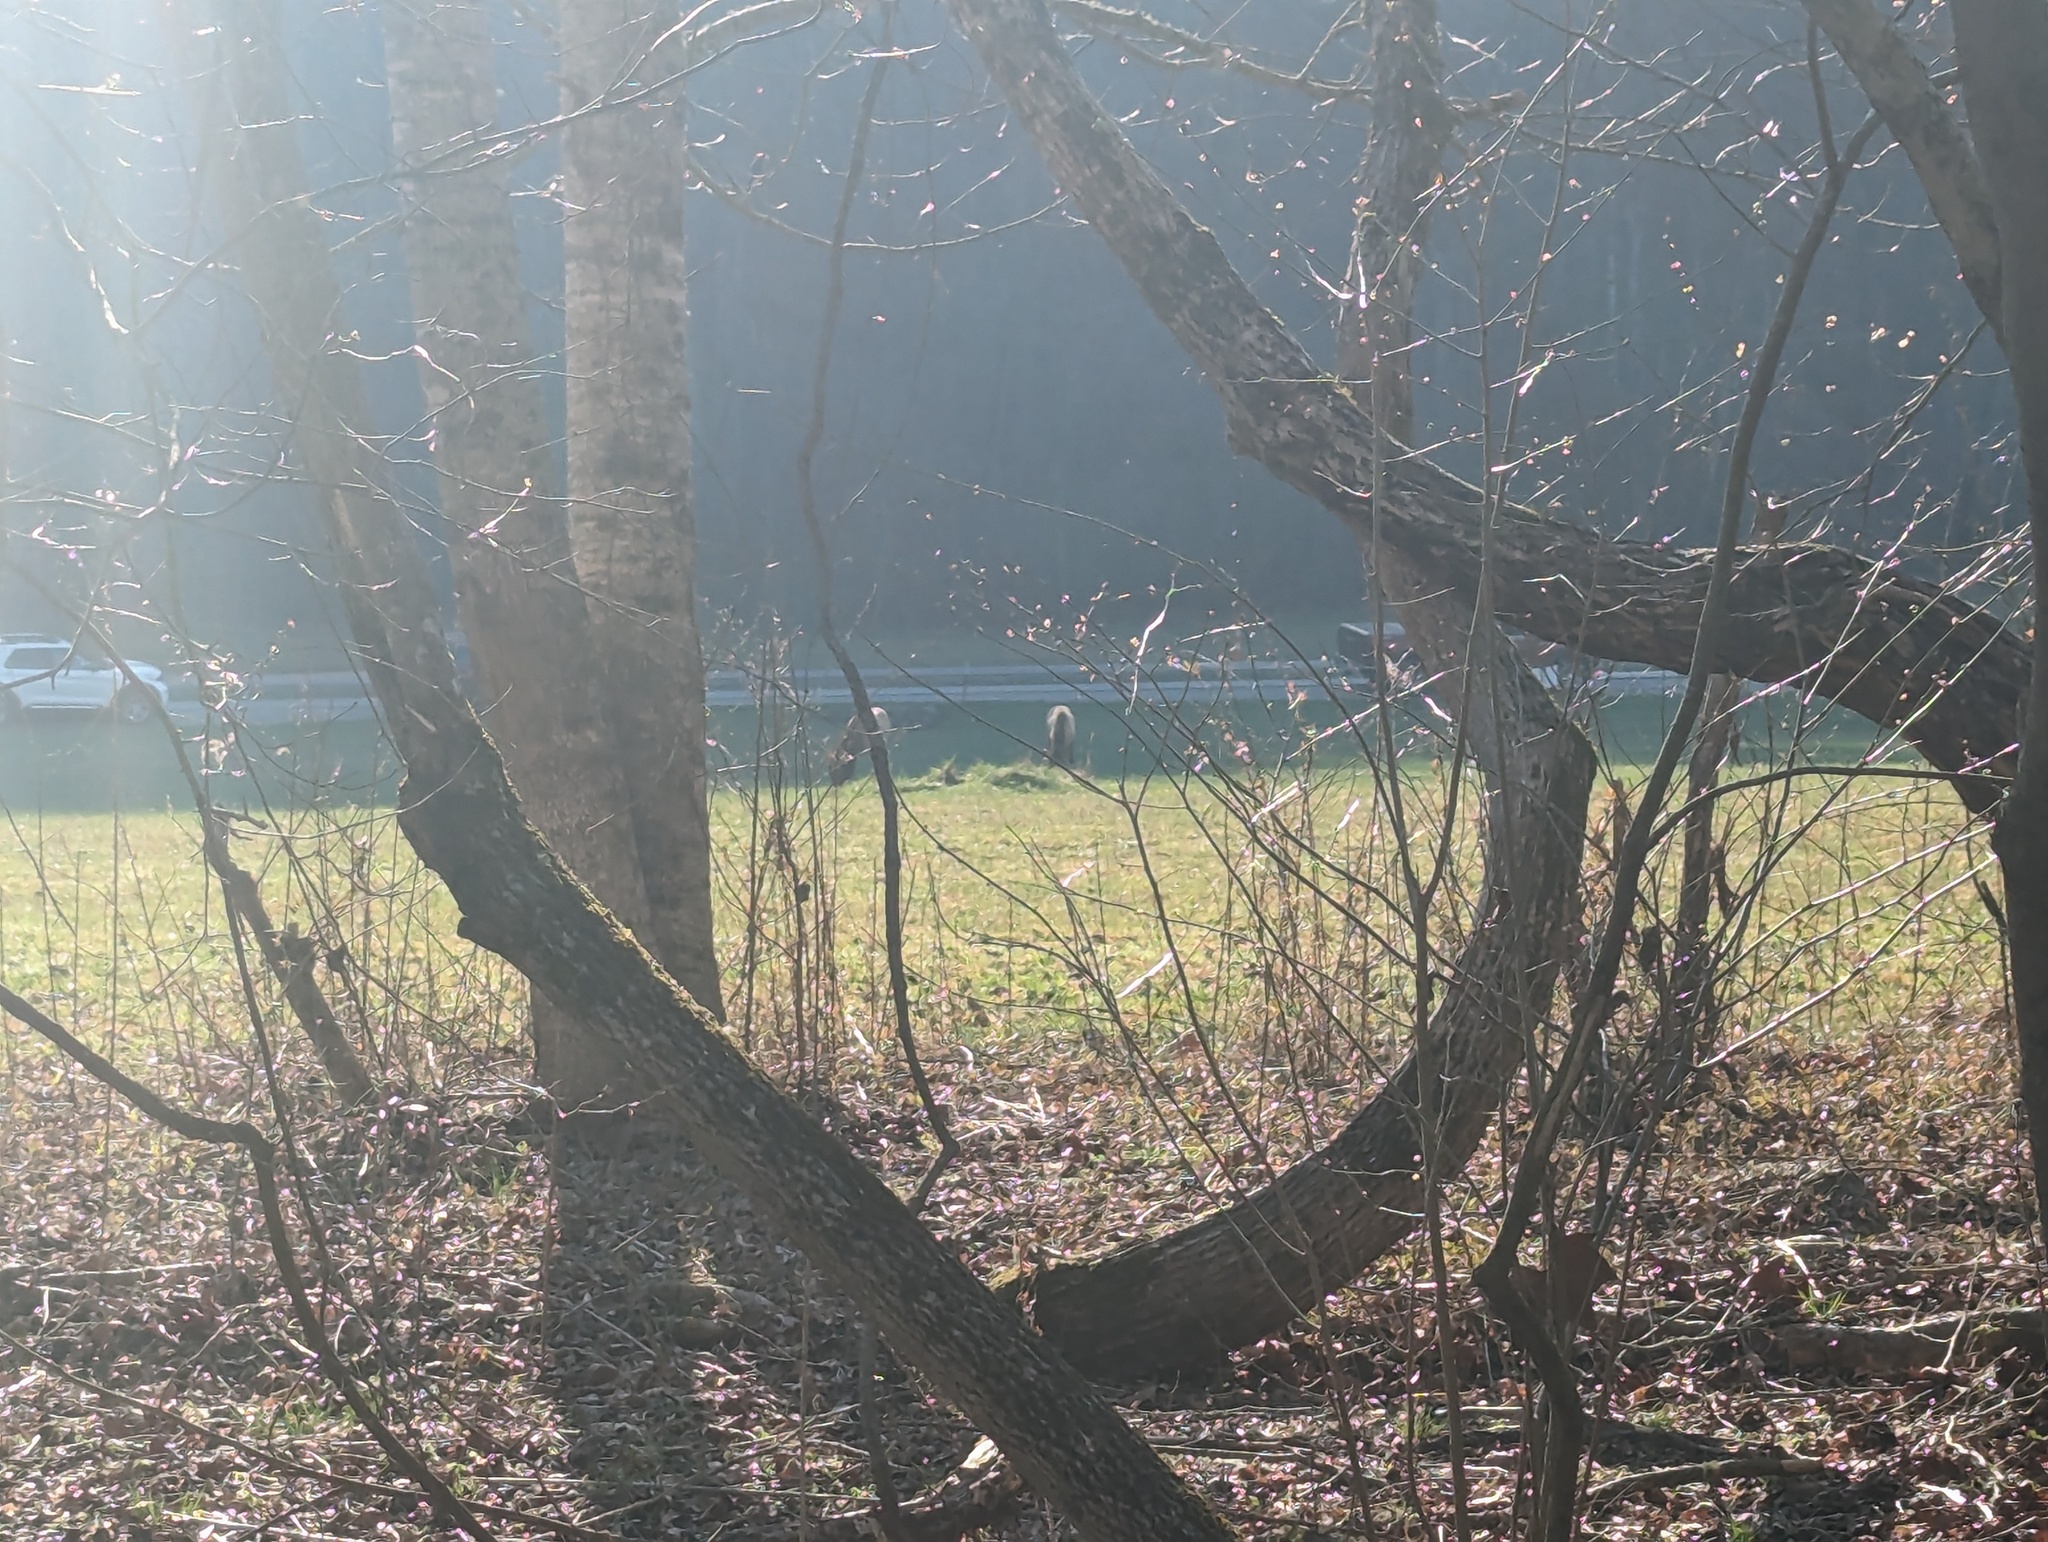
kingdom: Animalia
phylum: Chordata
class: Mammalia
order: Artiodactyla
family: Cervidae
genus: Cervus
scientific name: Cervus elaphus
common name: Red deer
